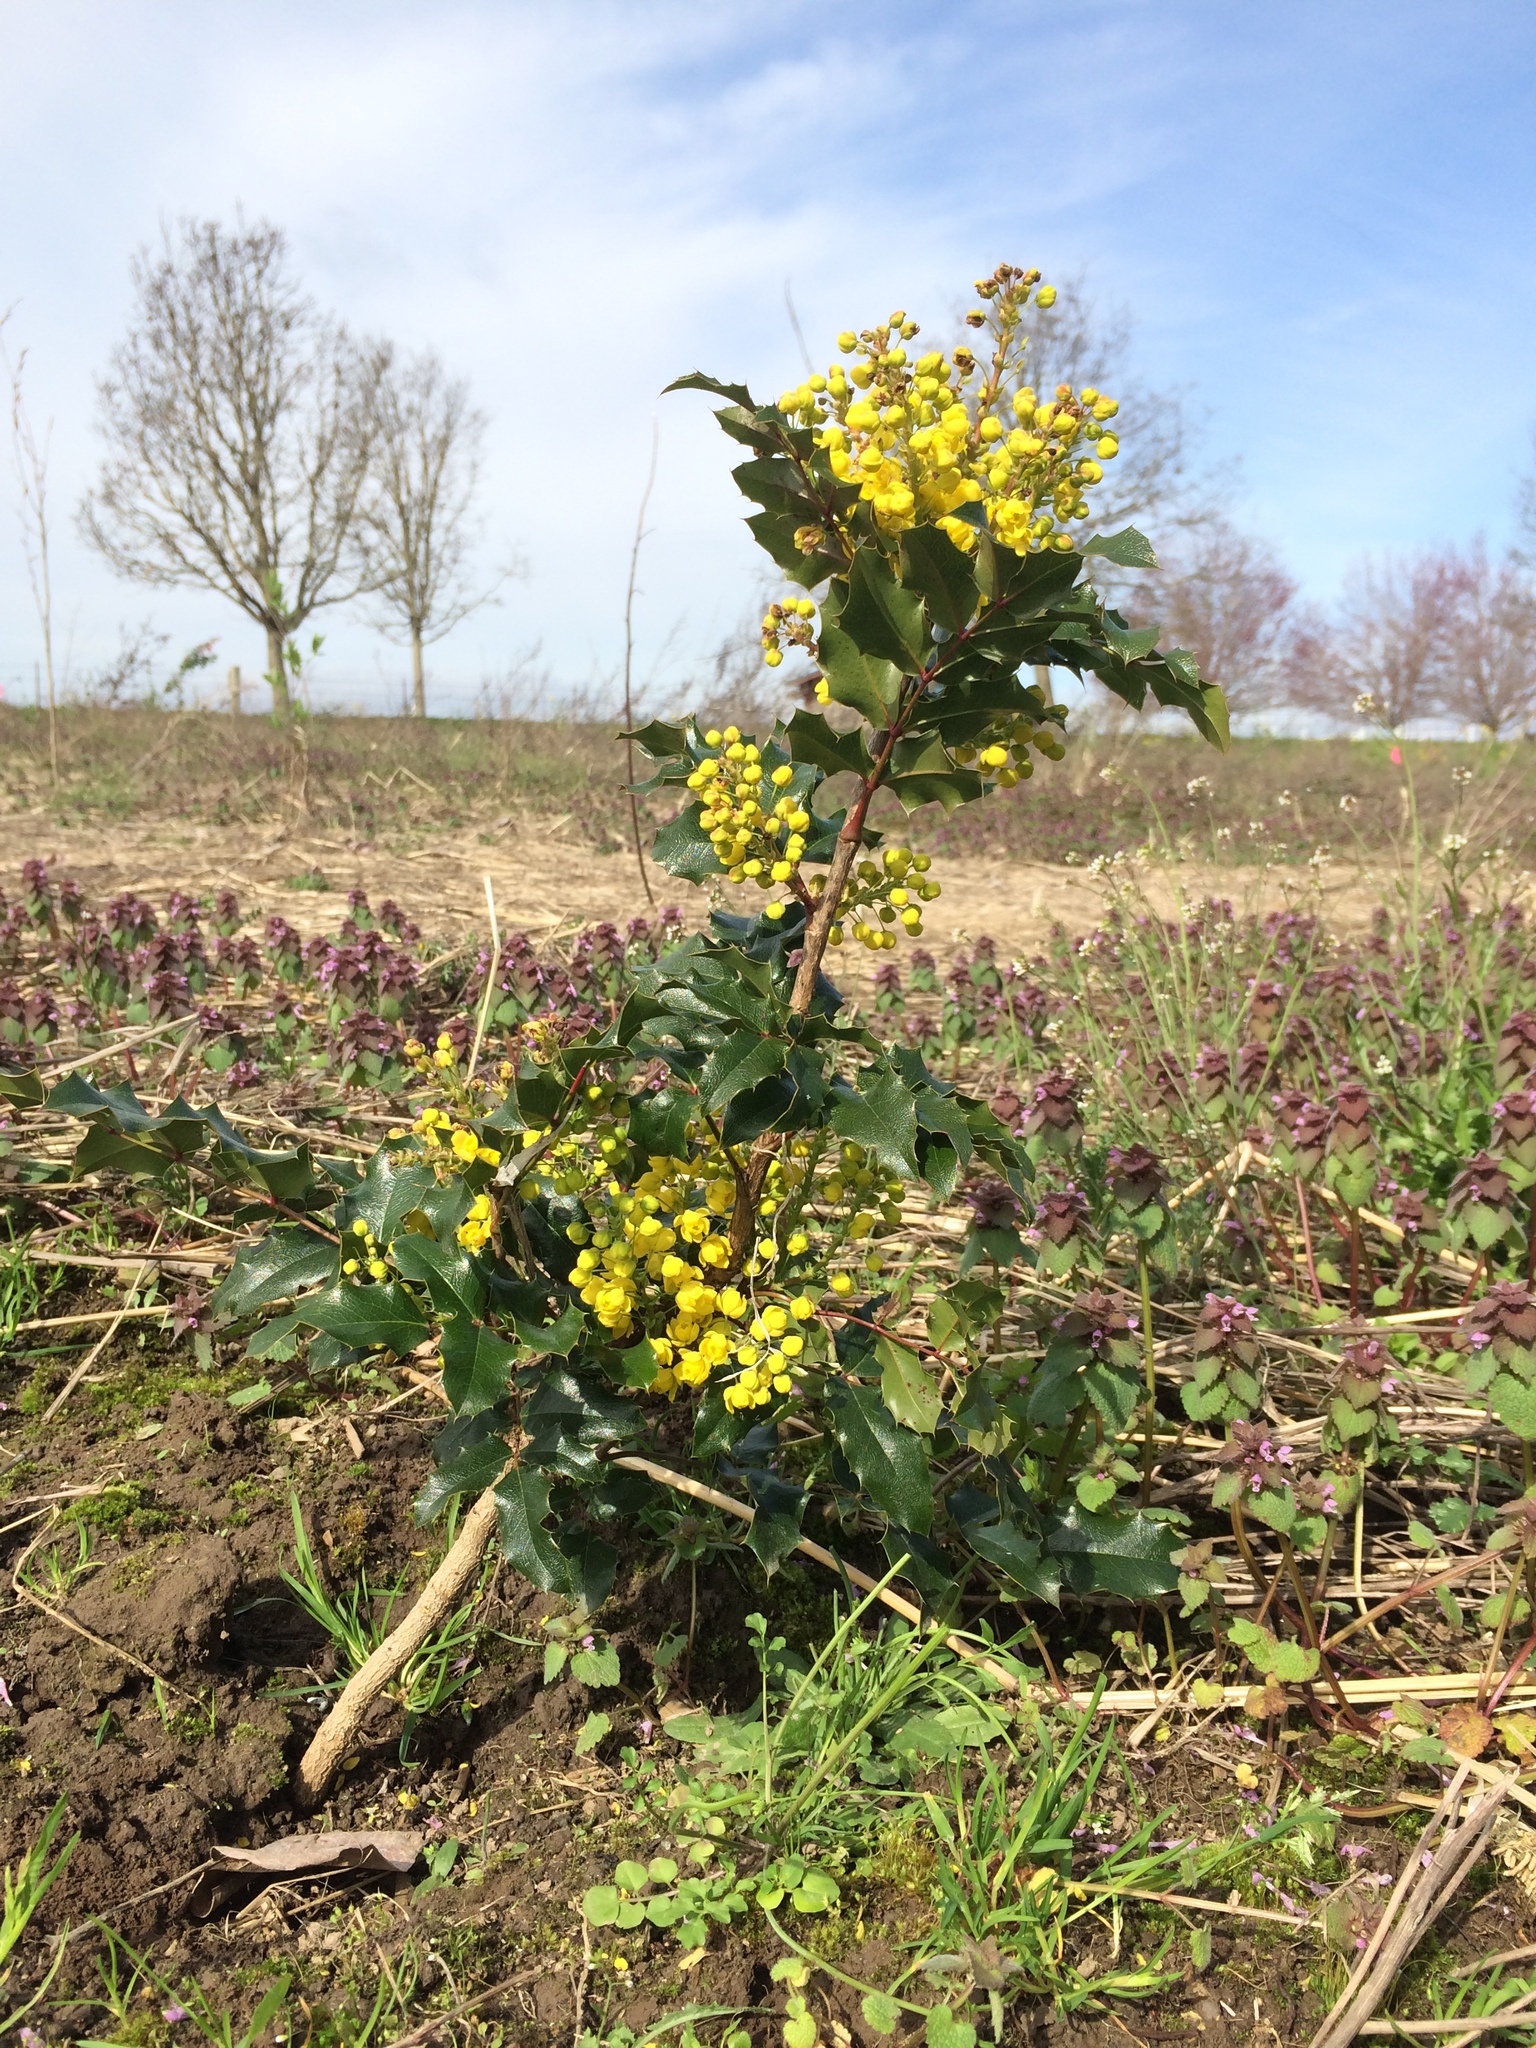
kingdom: Plantae
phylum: Tracheophyta
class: Magnoliopsida
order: Ranunculales
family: Berberidaceae
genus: Mahonia
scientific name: Mahonia aquifolium
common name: Oregon-grape
